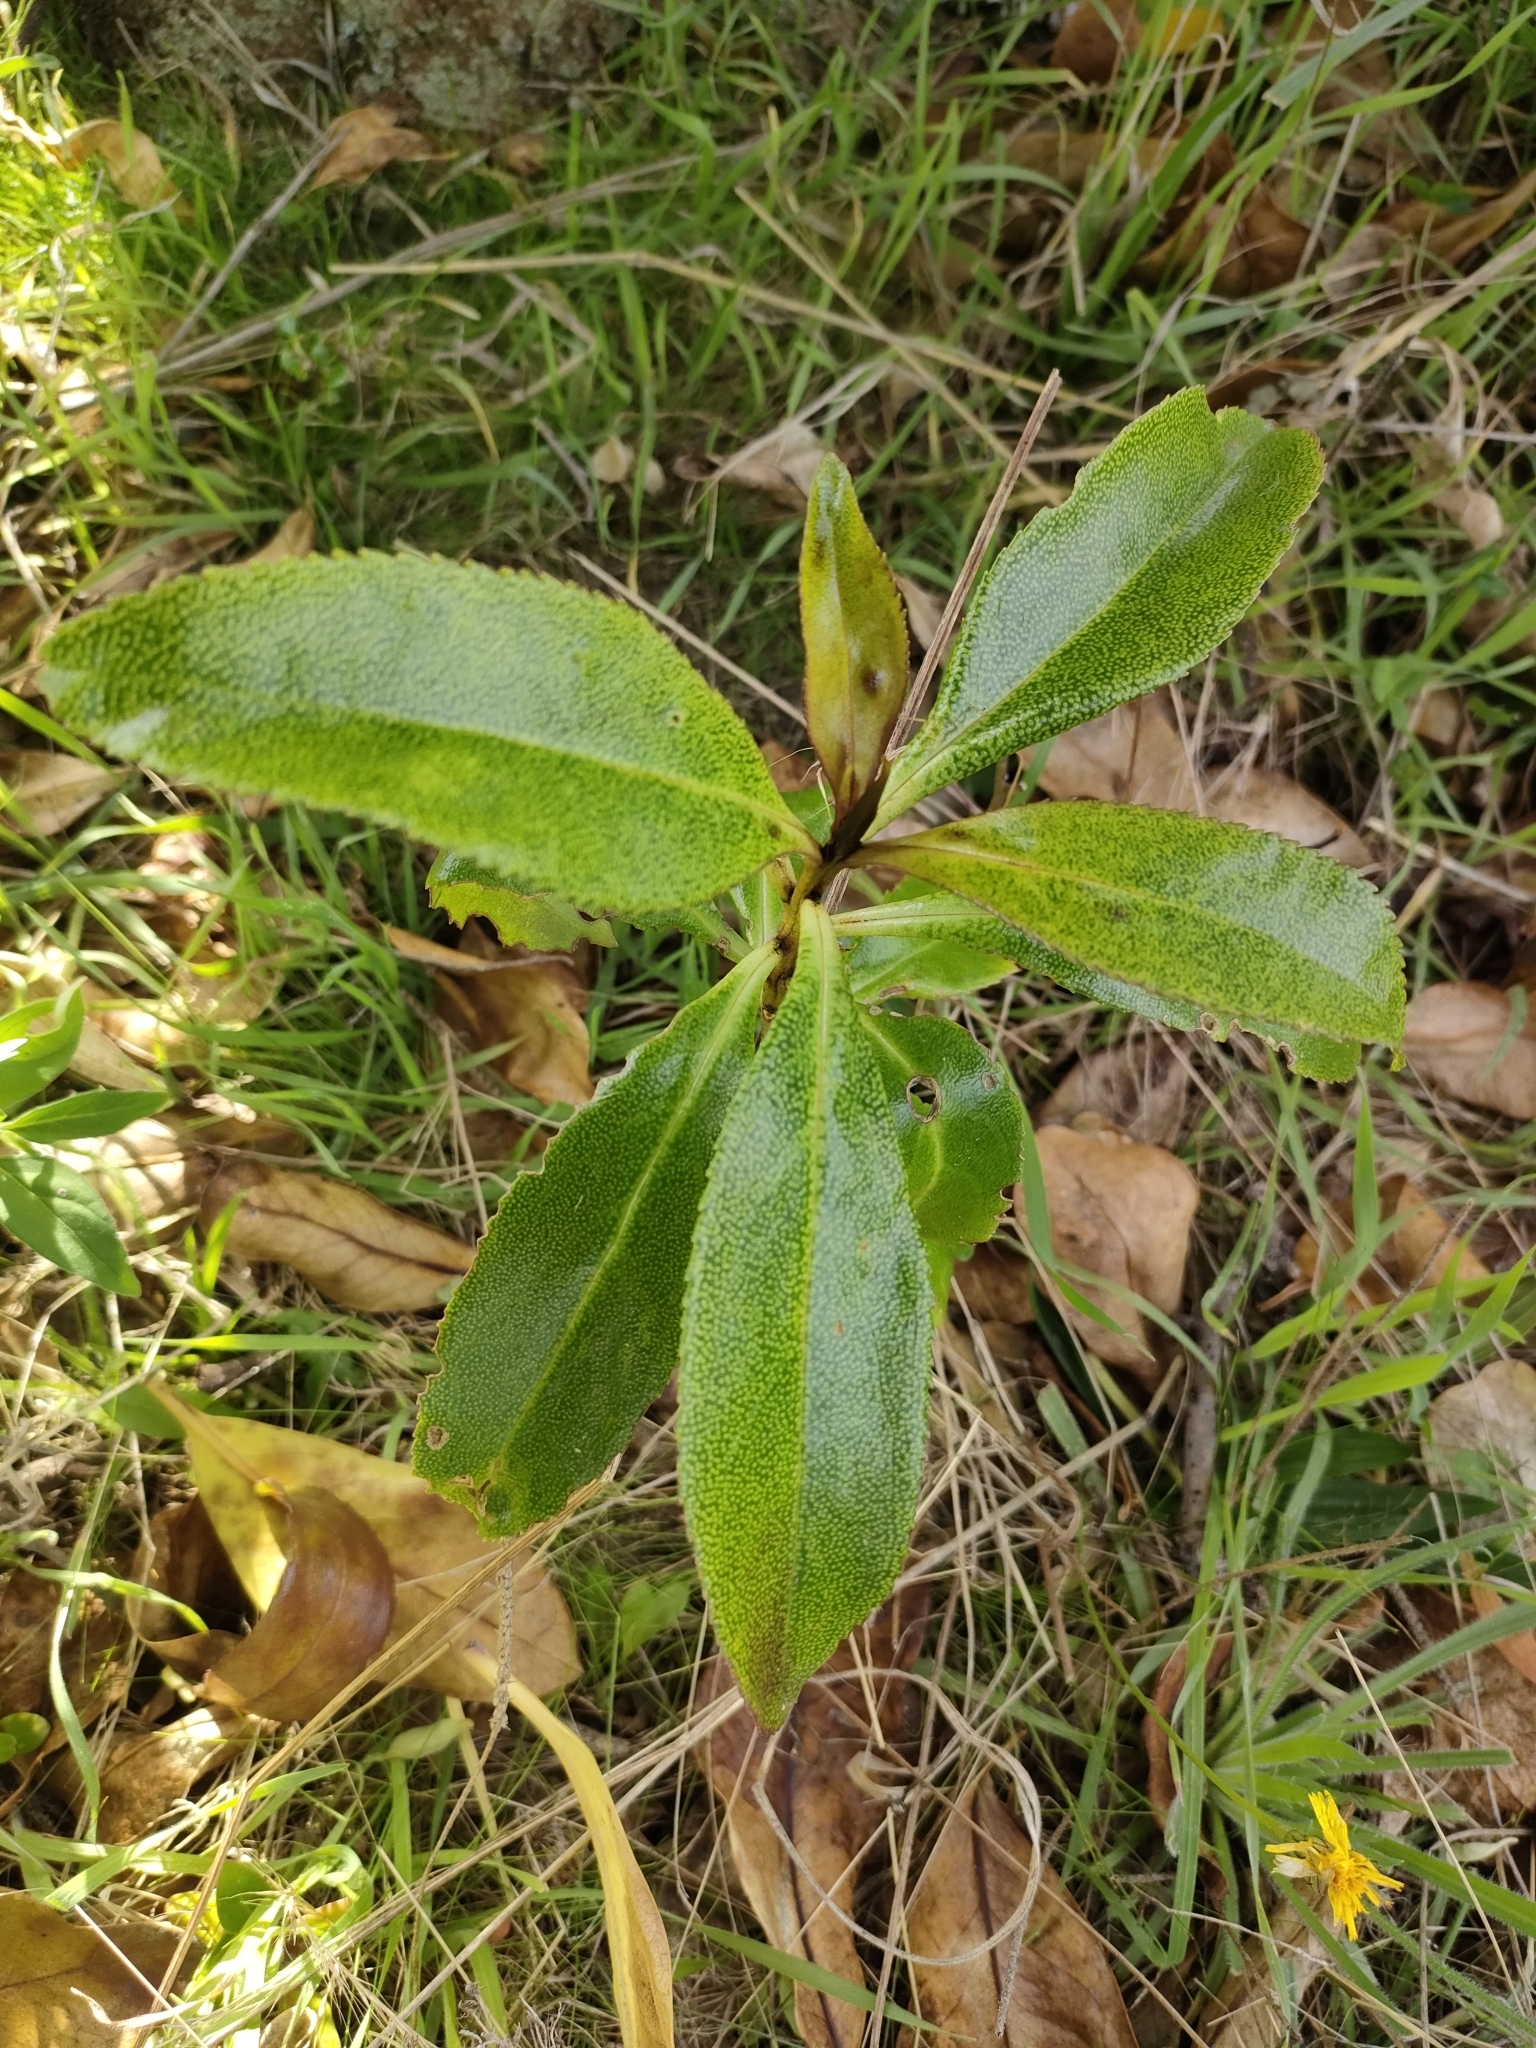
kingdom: Plantae
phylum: Tracheophyta
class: Magnoliopsida
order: Lamiales
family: Scrophulariaceae
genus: Myoporum
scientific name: Myoporum laetum
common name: Ngaio tree
